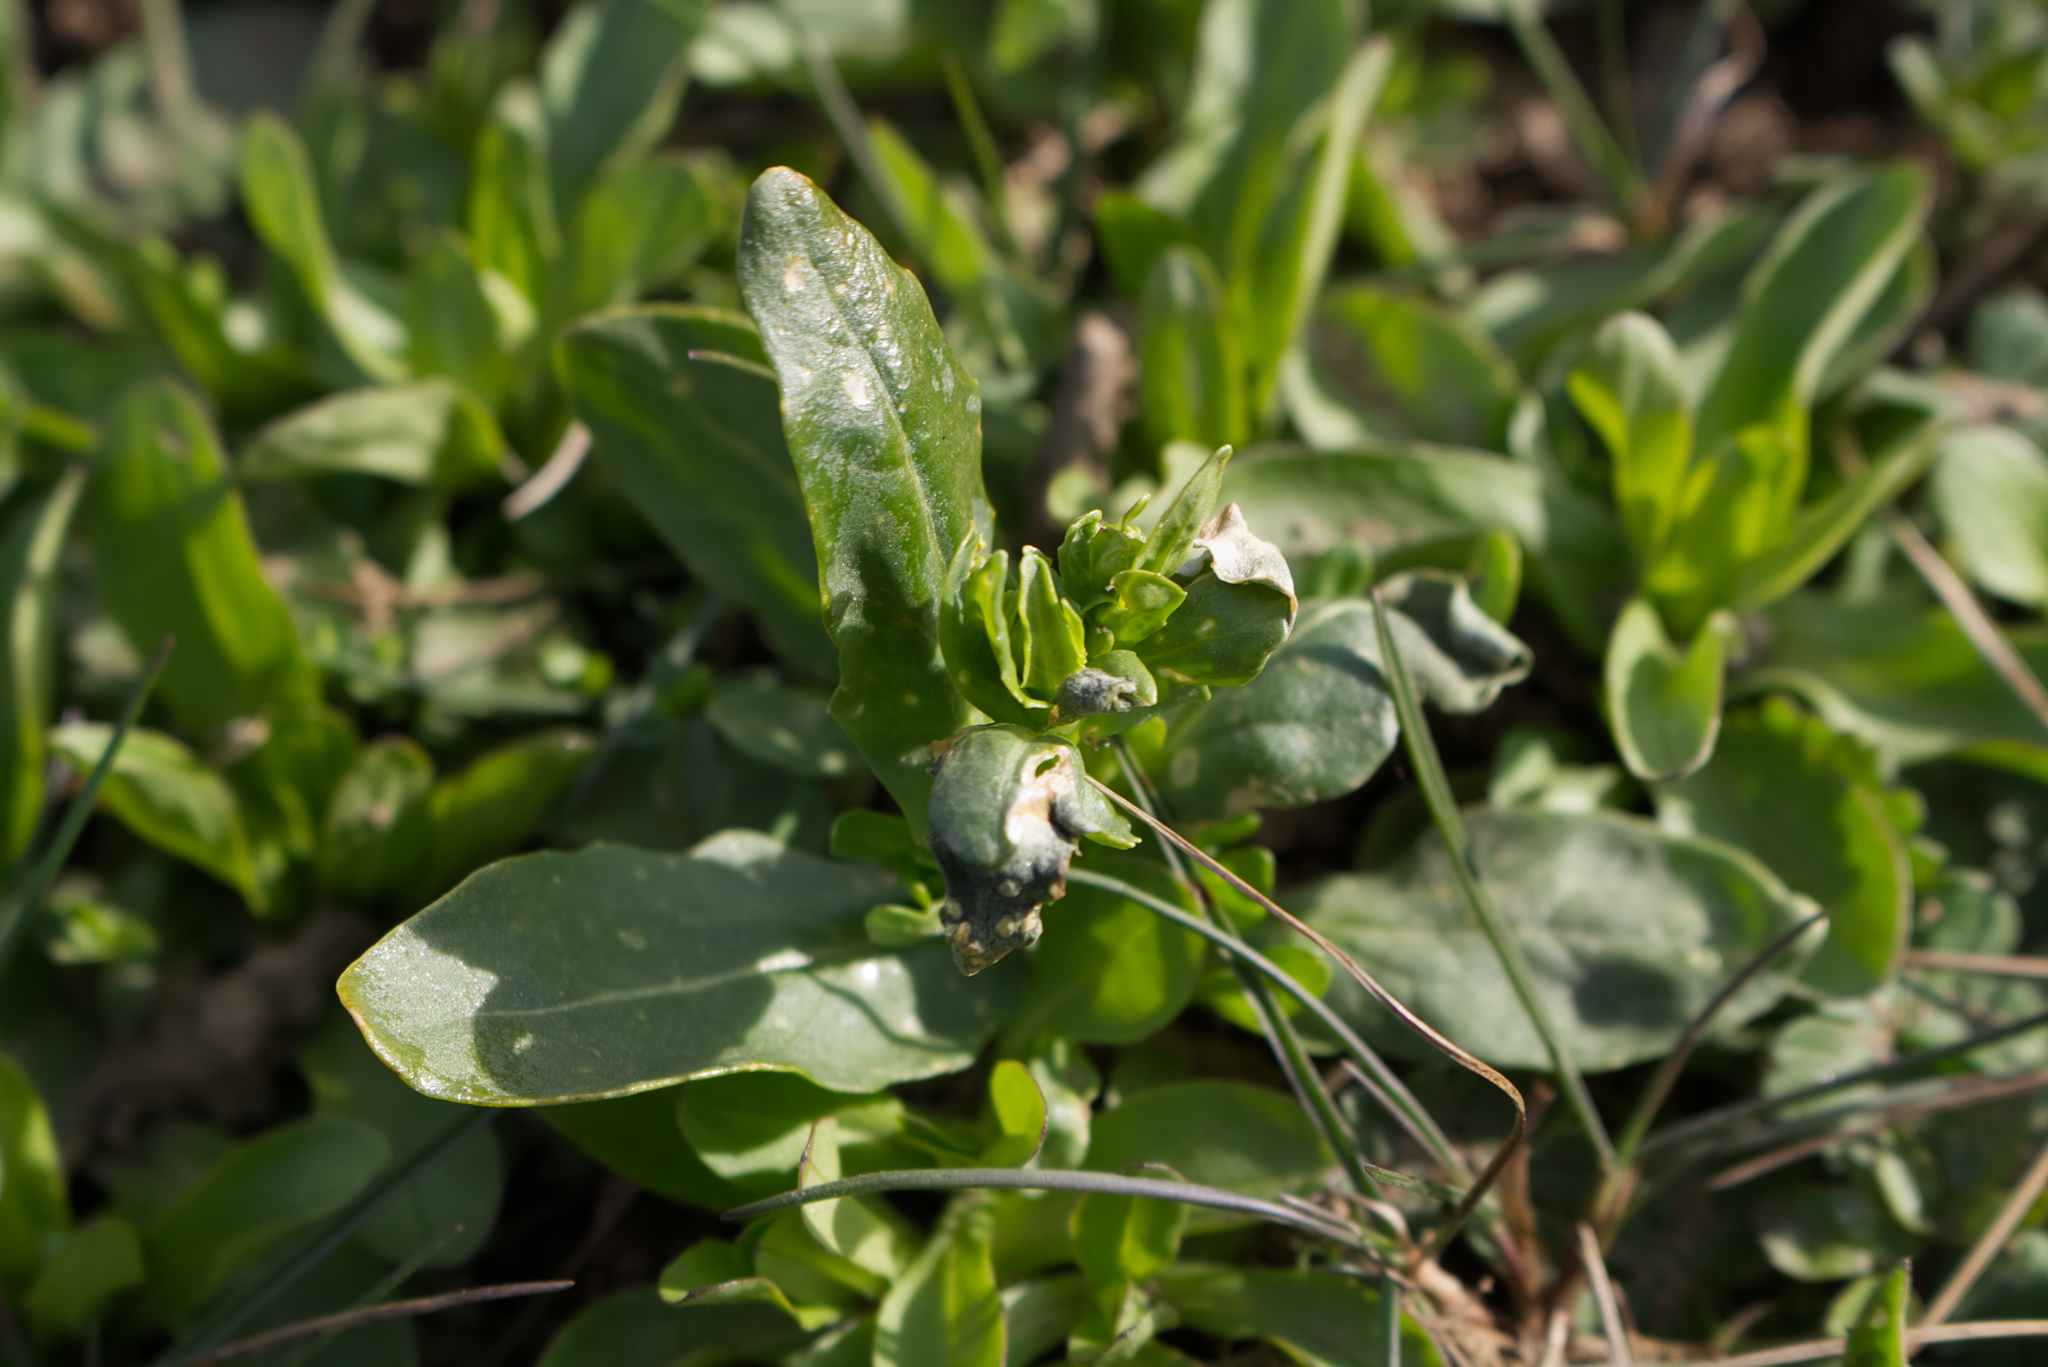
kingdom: Plantae
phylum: Tracheophyta
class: Magnoliopsida
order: Brassicales
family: Brassicaceae
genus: Thlaspi
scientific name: Thlaspi arvense
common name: Field pennycress
